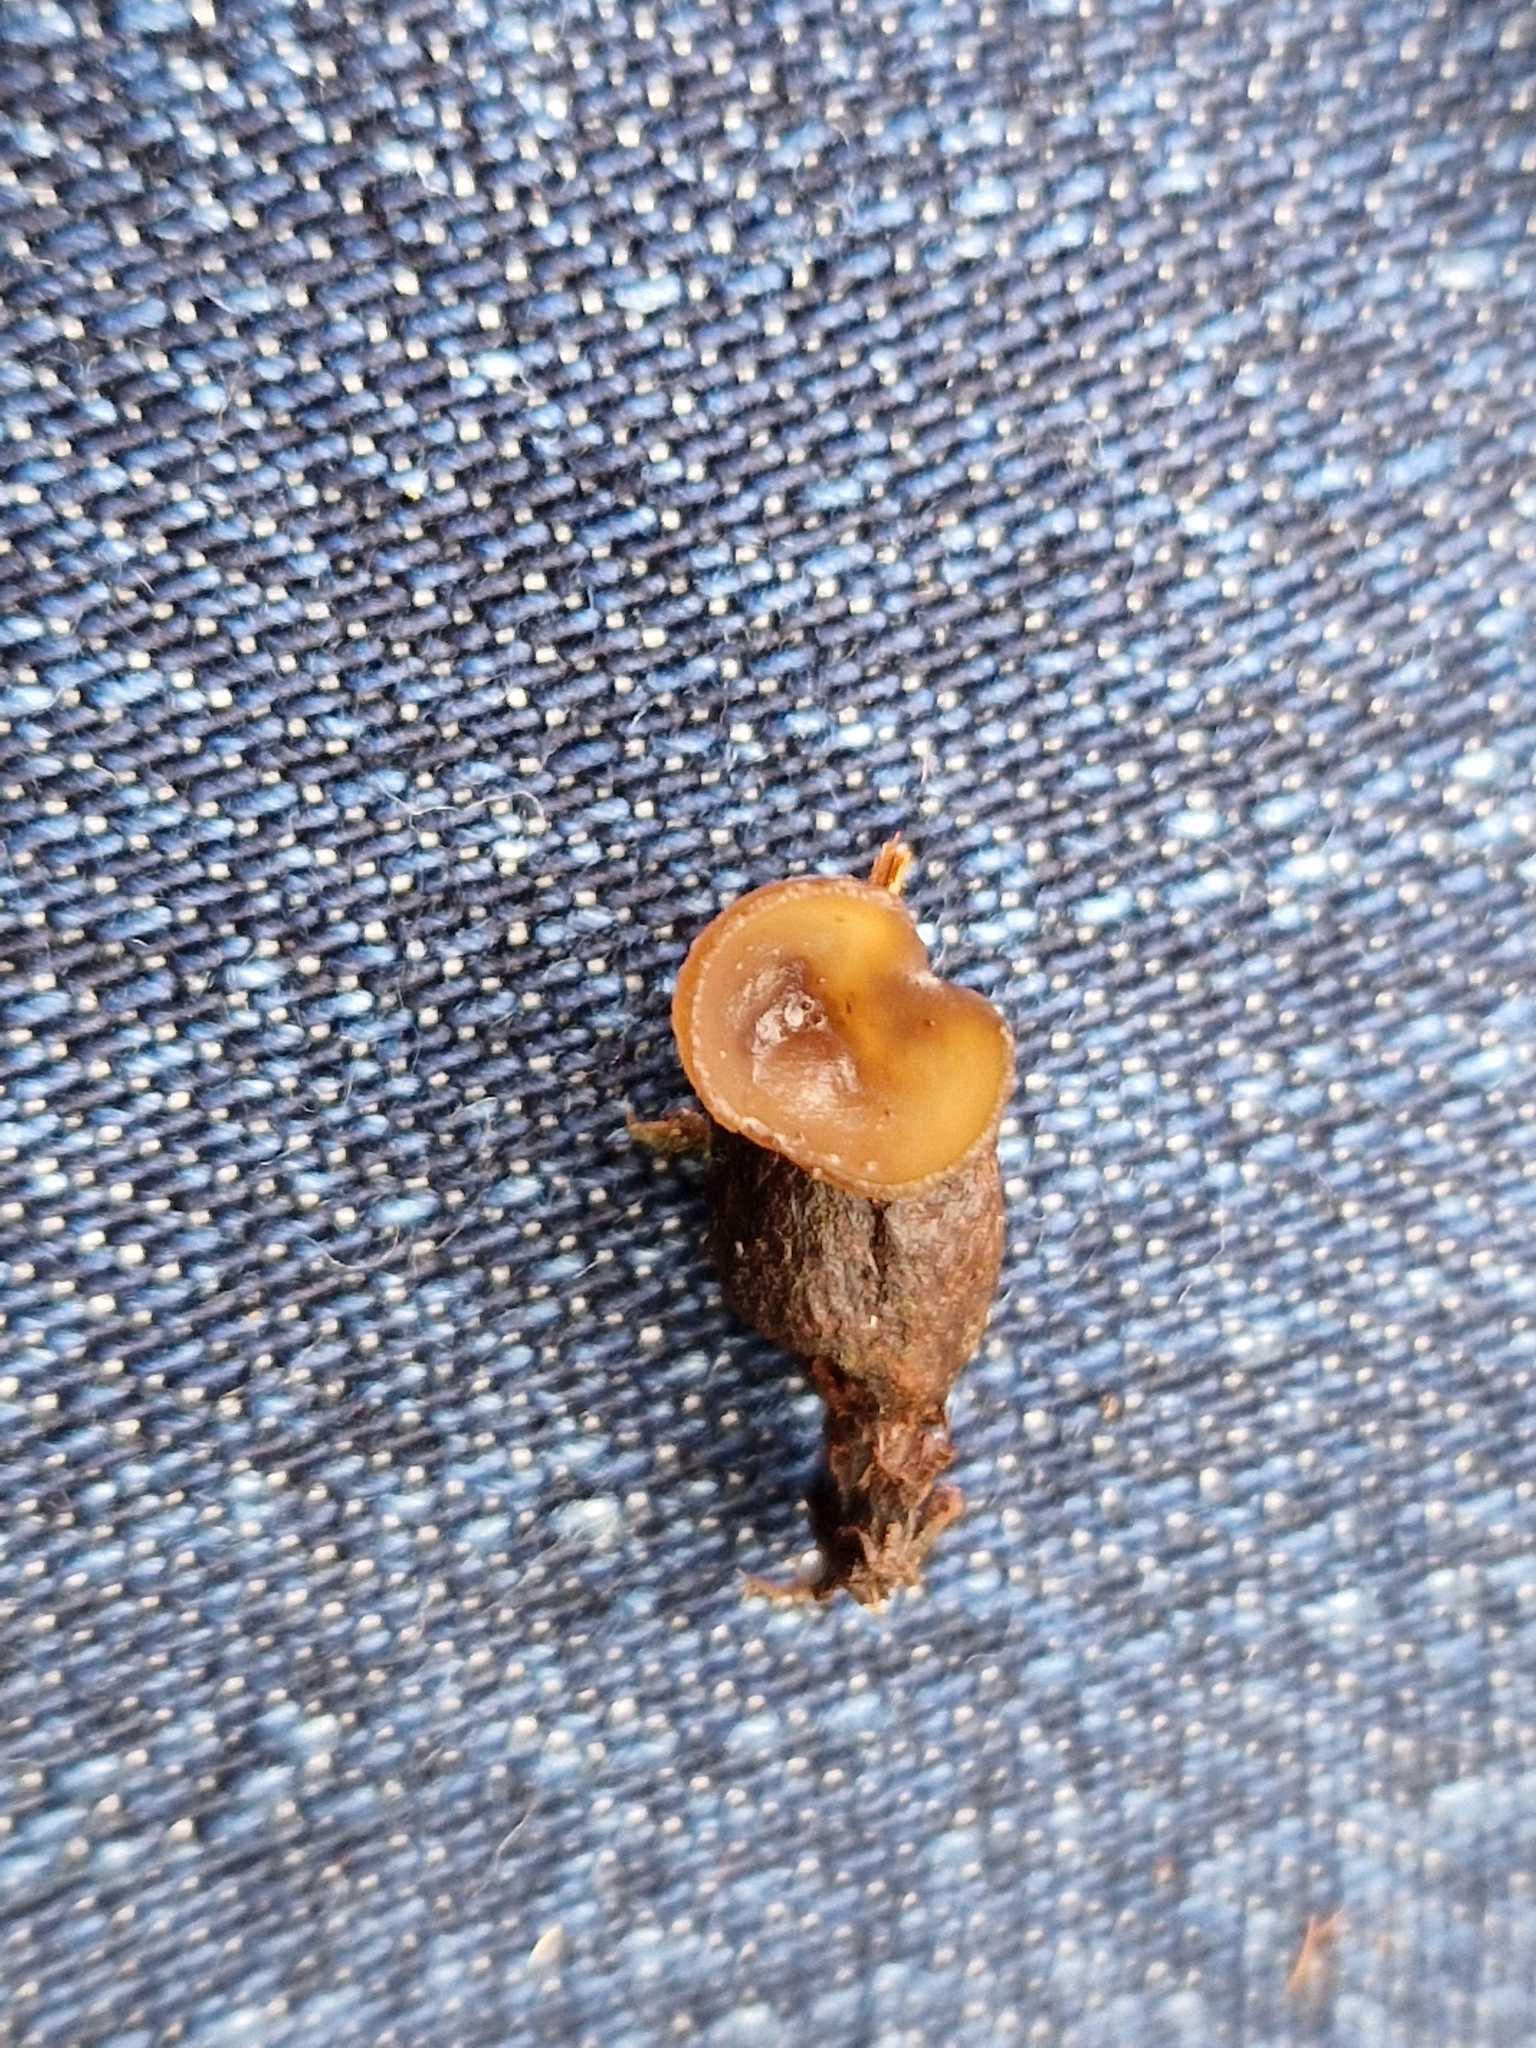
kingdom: Fungi
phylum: Ascomycota
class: Leotiomycetes
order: Helotiales
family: Sclerotiniaceae
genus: Monilinia
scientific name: Monilinia johnsonii
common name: Haw goblet
